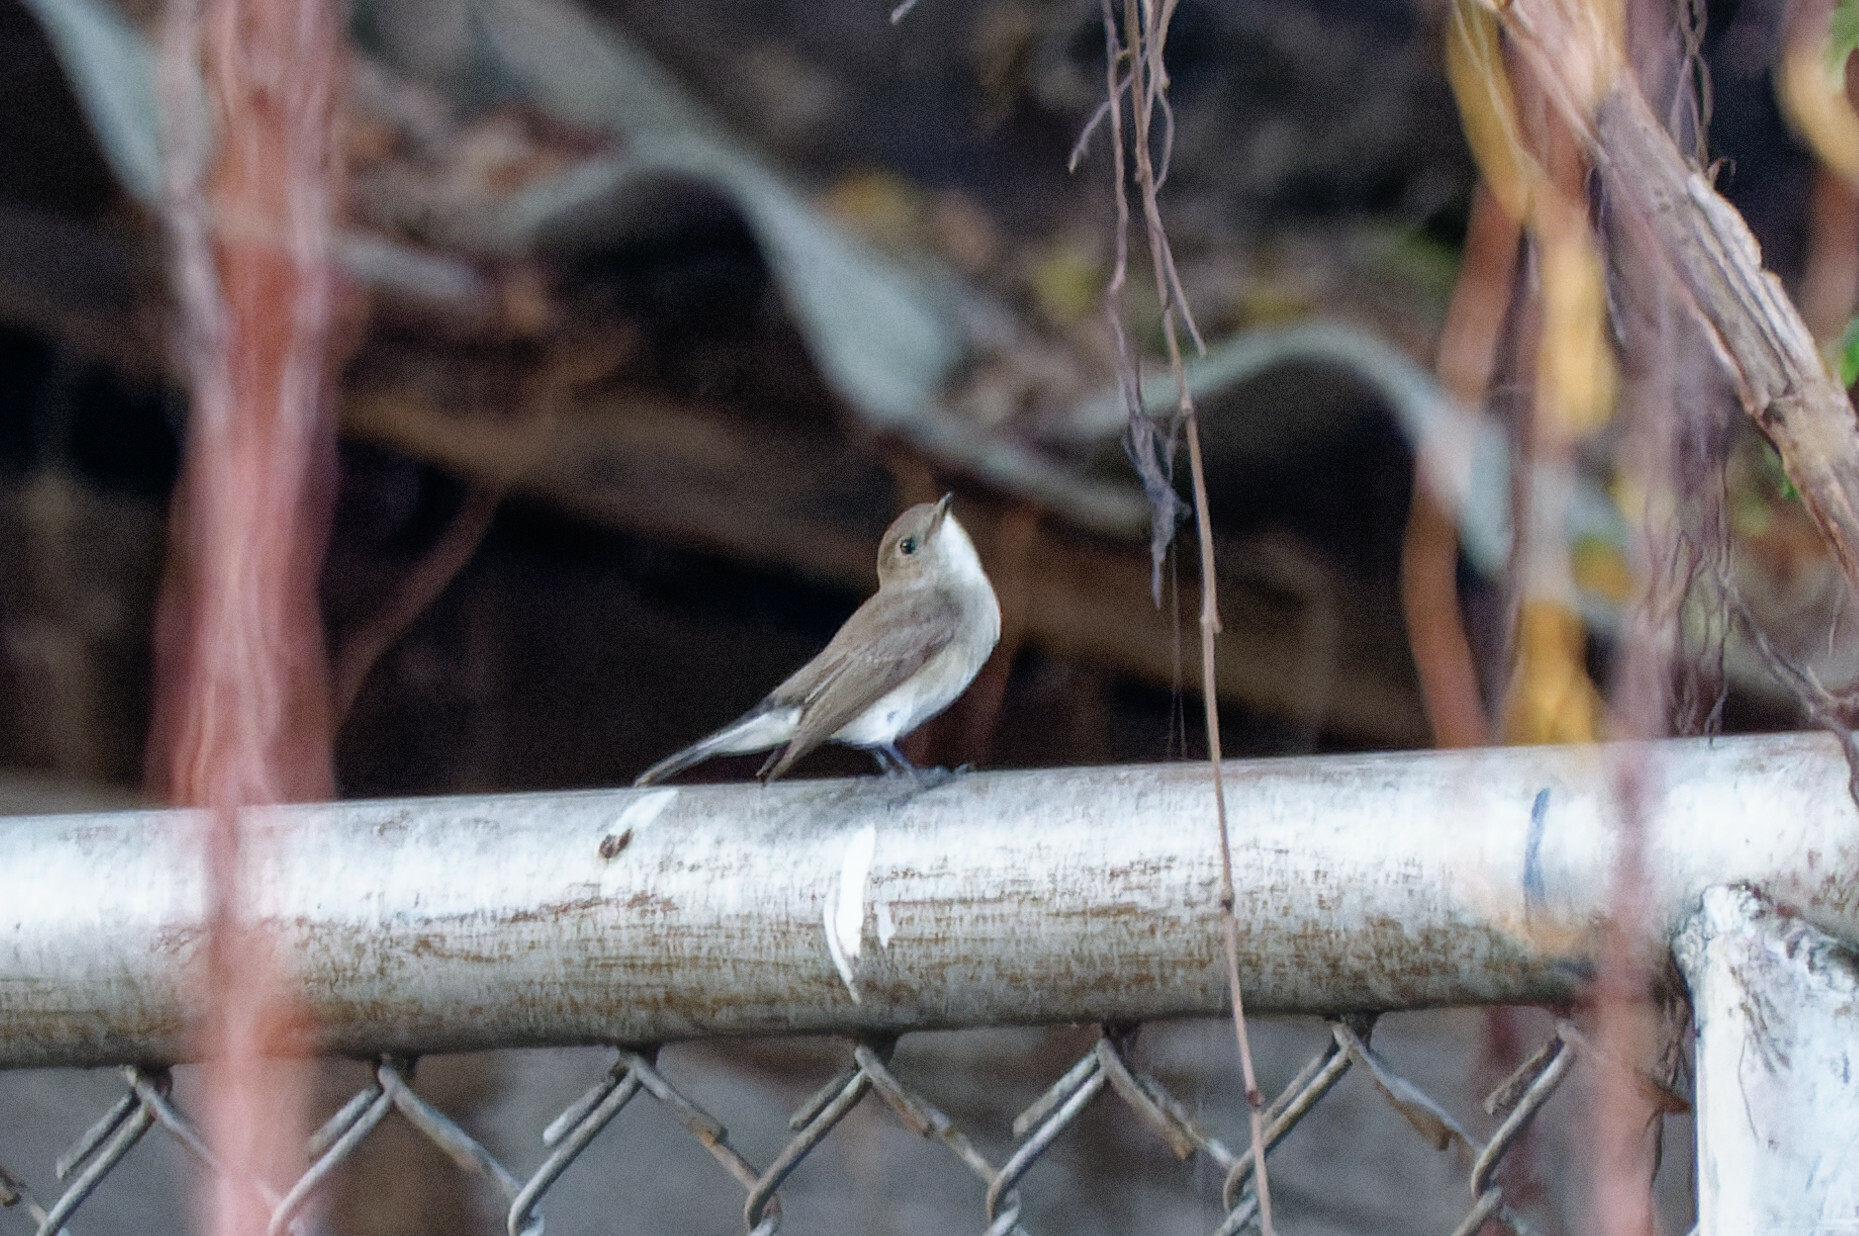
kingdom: Animalia
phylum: Chordata
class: Aves
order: Passeriformes
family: Muscicapidae
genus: Ficedula
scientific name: Ficedula albicilla
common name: Taiga flycatcher
